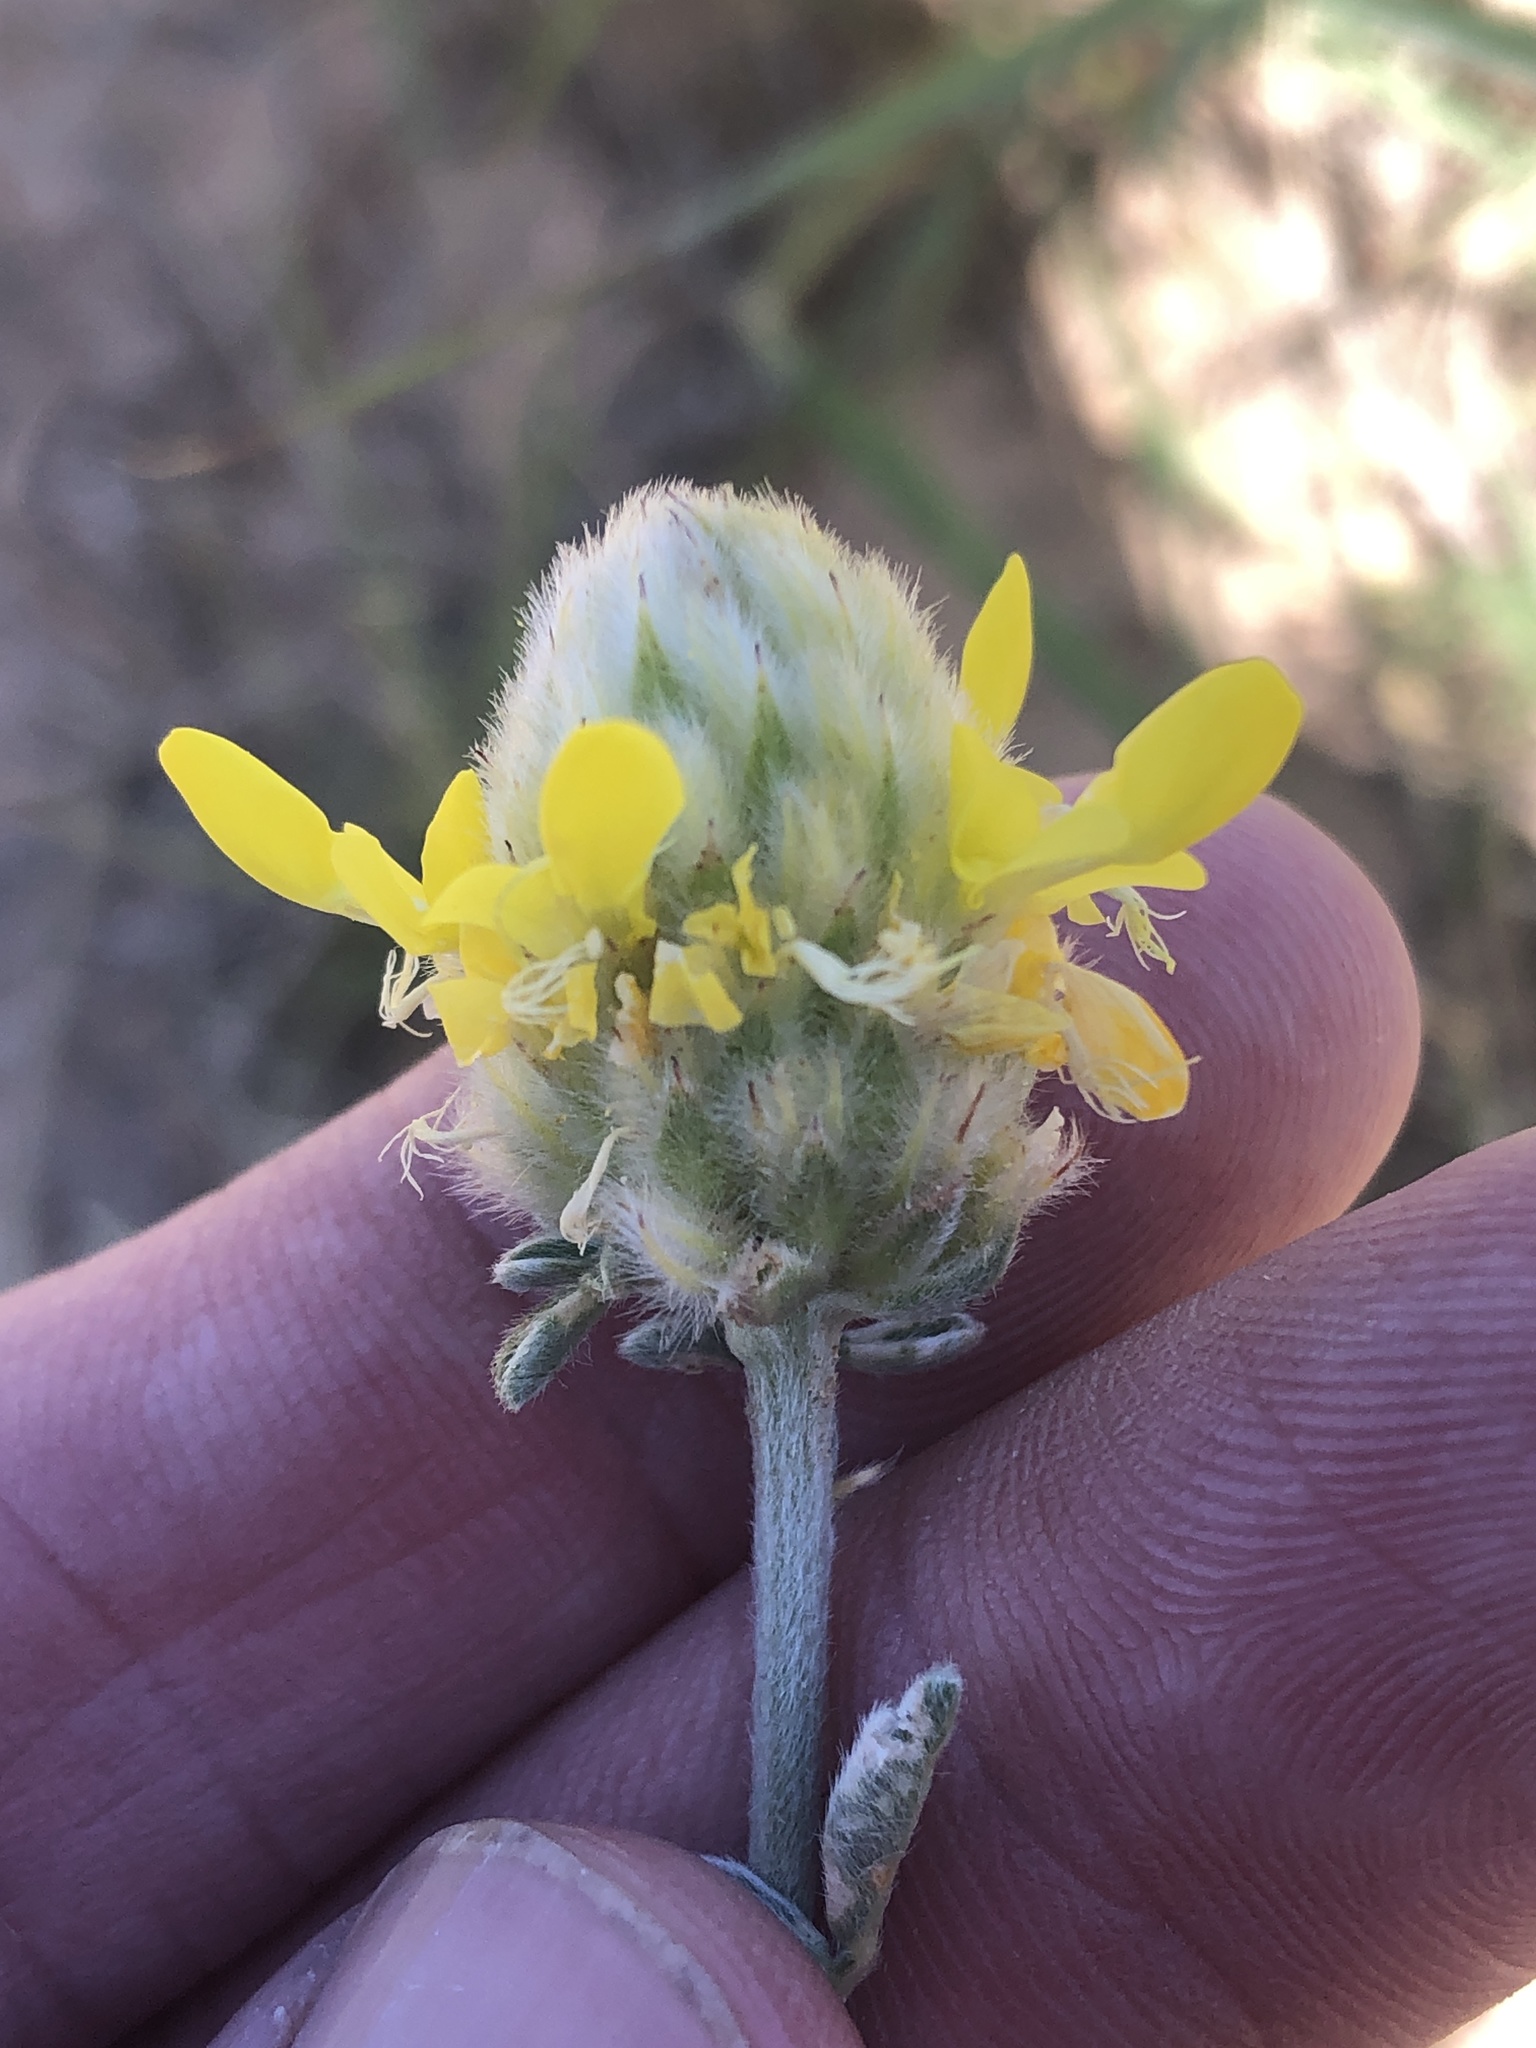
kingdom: Plantae
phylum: Tracheophyta
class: Magnoliopsida
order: Fabales
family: Fabaceae
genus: Dalea
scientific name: Dalea aurea
